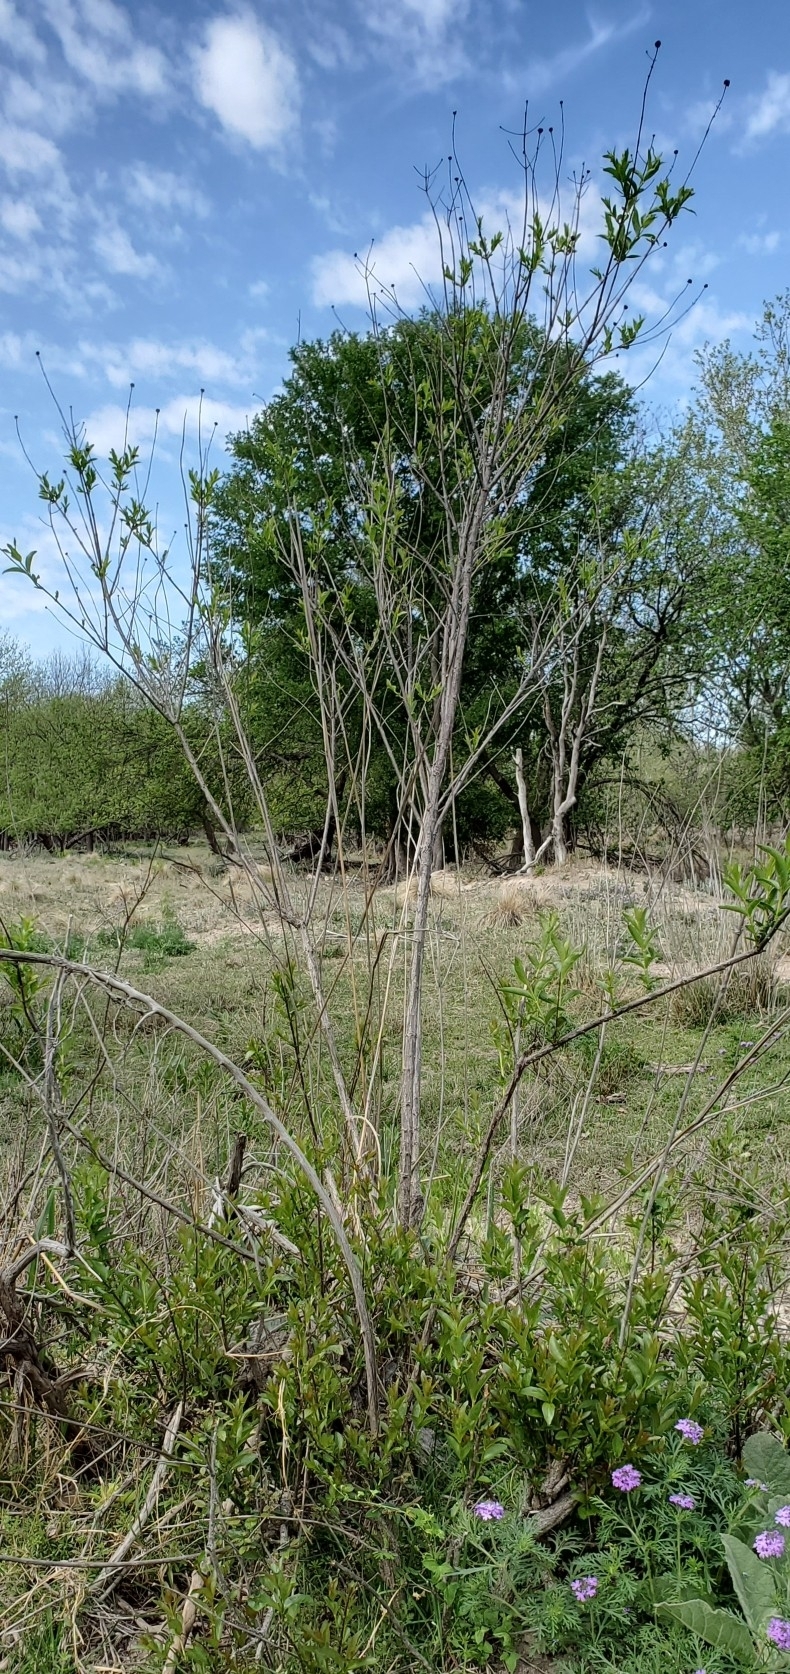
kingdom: Plantae
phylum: Tracheophyta
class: Magnoliopsida
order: Gentianales
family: Rubiaceae
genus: Cephalanthus
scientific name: Cephalanthus occidentalis
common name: Button-willow
